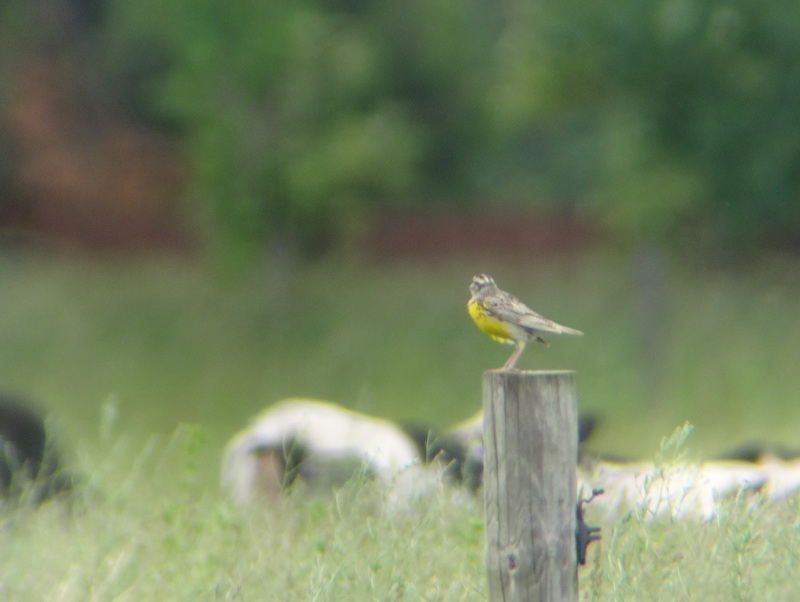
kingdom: Animalia
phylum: Chordata
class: Aves
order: Passeriformes
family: Icteridae
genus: Sturnella
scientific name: Sturnella neglecta
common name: Western meadowlark
